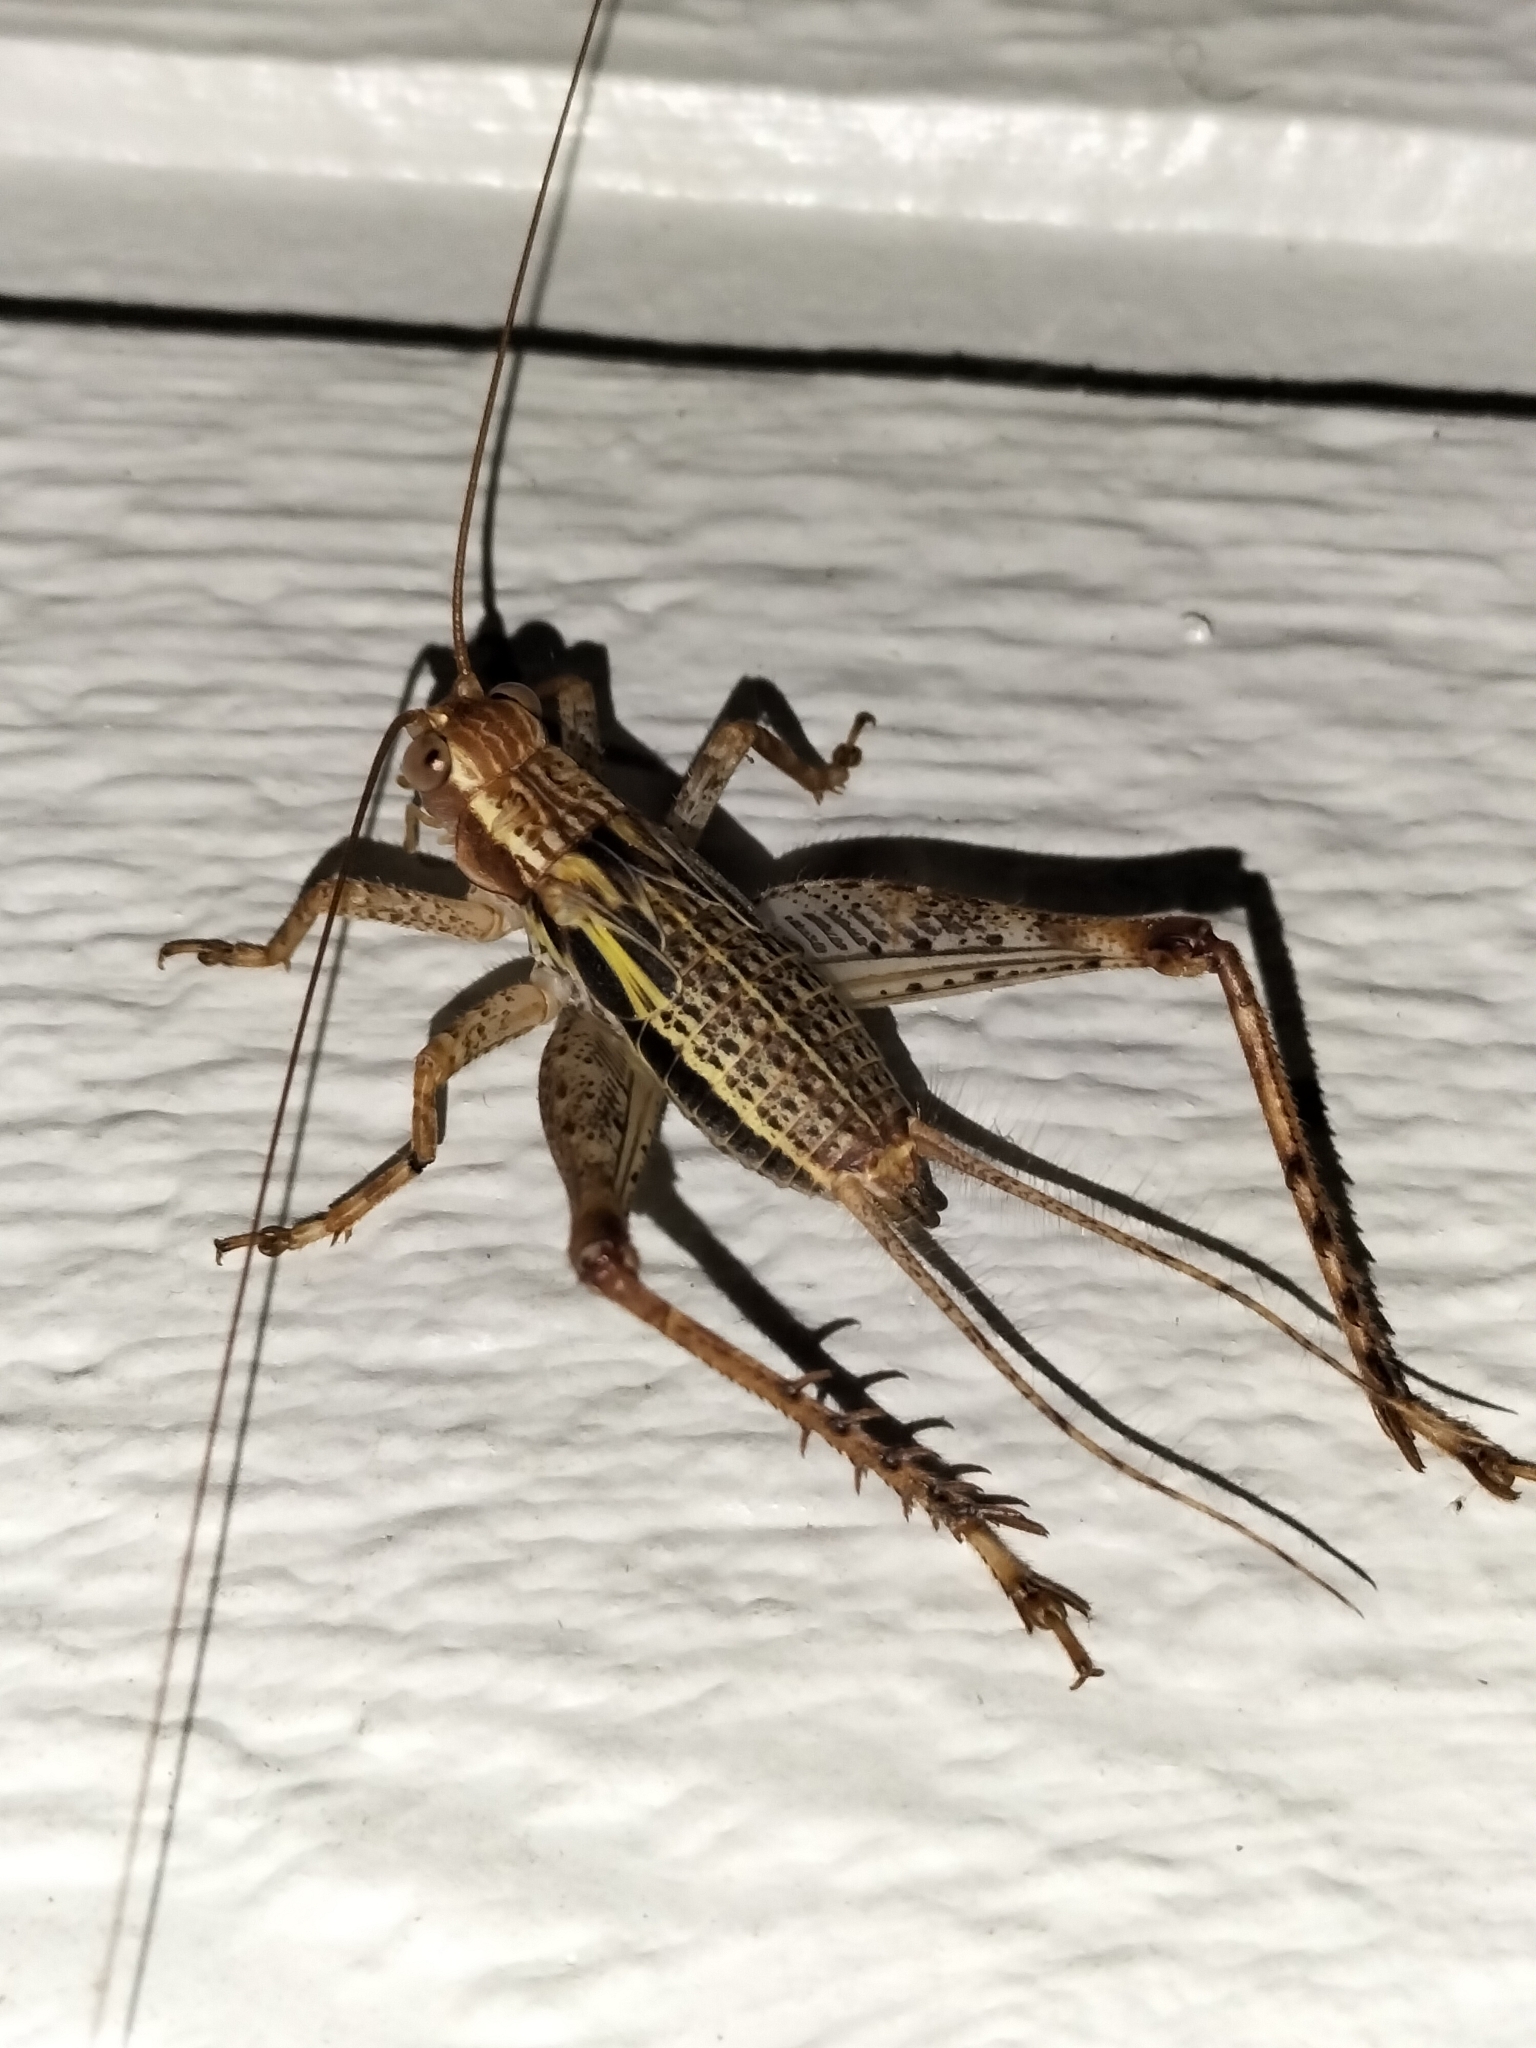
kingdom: Animalia
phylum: Arthropoda
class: Insecta
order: Orthoptera
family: Gryllidae
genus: Cardiodactylus
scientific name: Cardiodactylus novaeguineae
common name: Sad cricket
